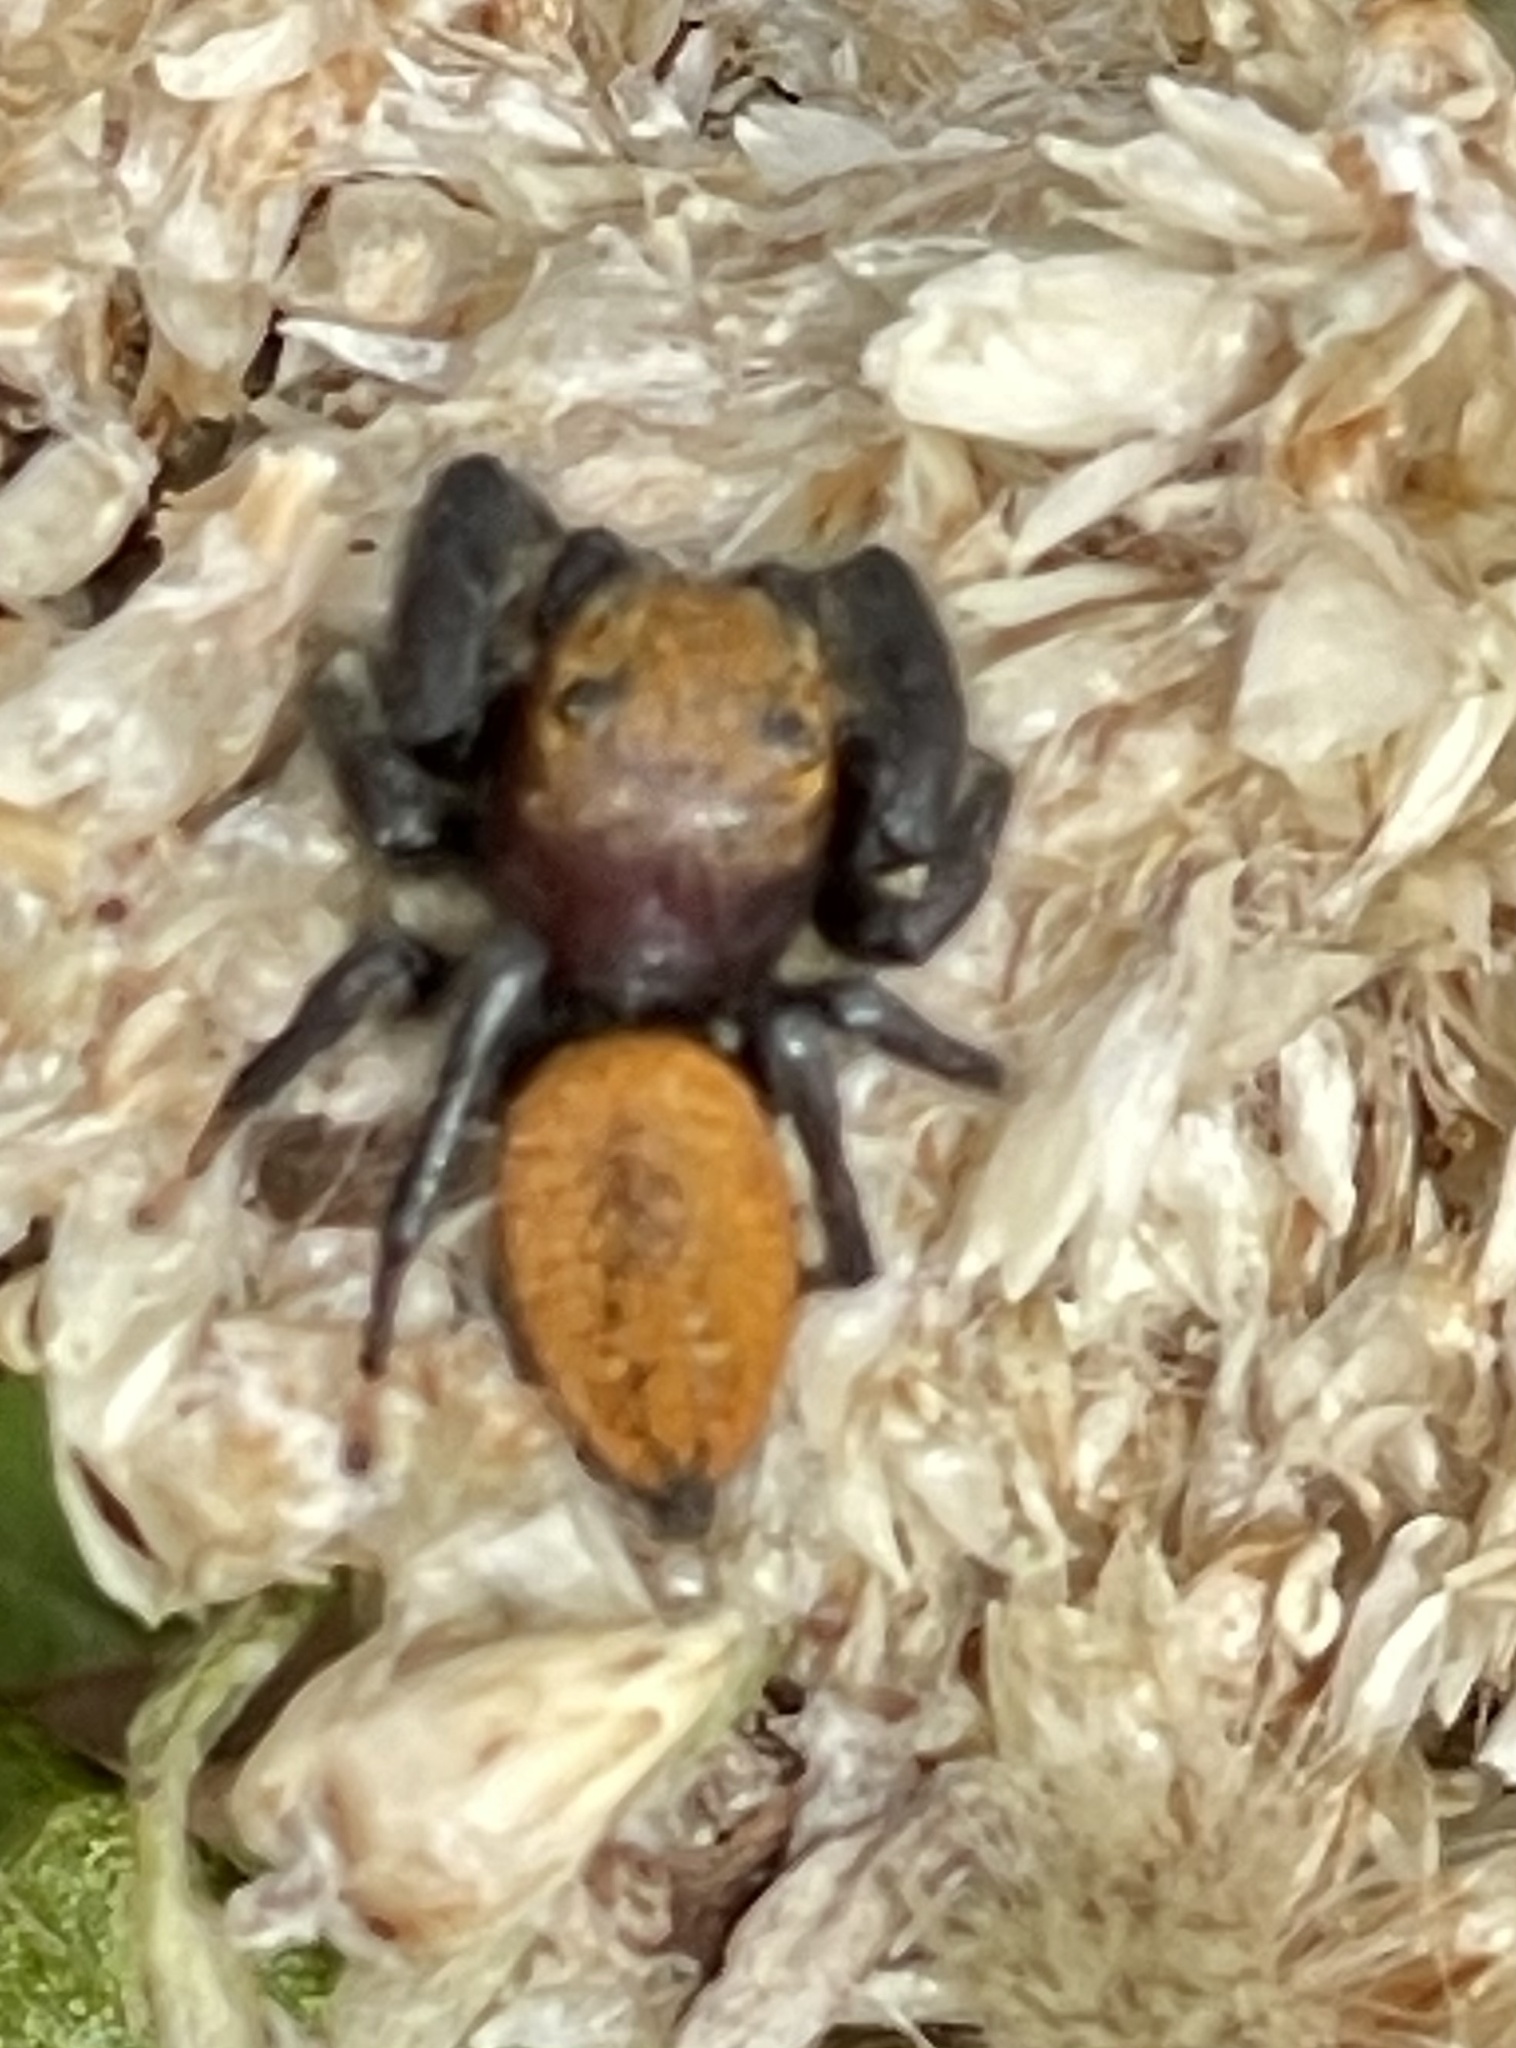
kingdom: Animalia
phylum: Arthropoda
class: Arachnida
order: Araneae
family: Salticidae
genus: Phidippus
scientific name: Phidippus cardinalis
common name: Cardinal jumper
